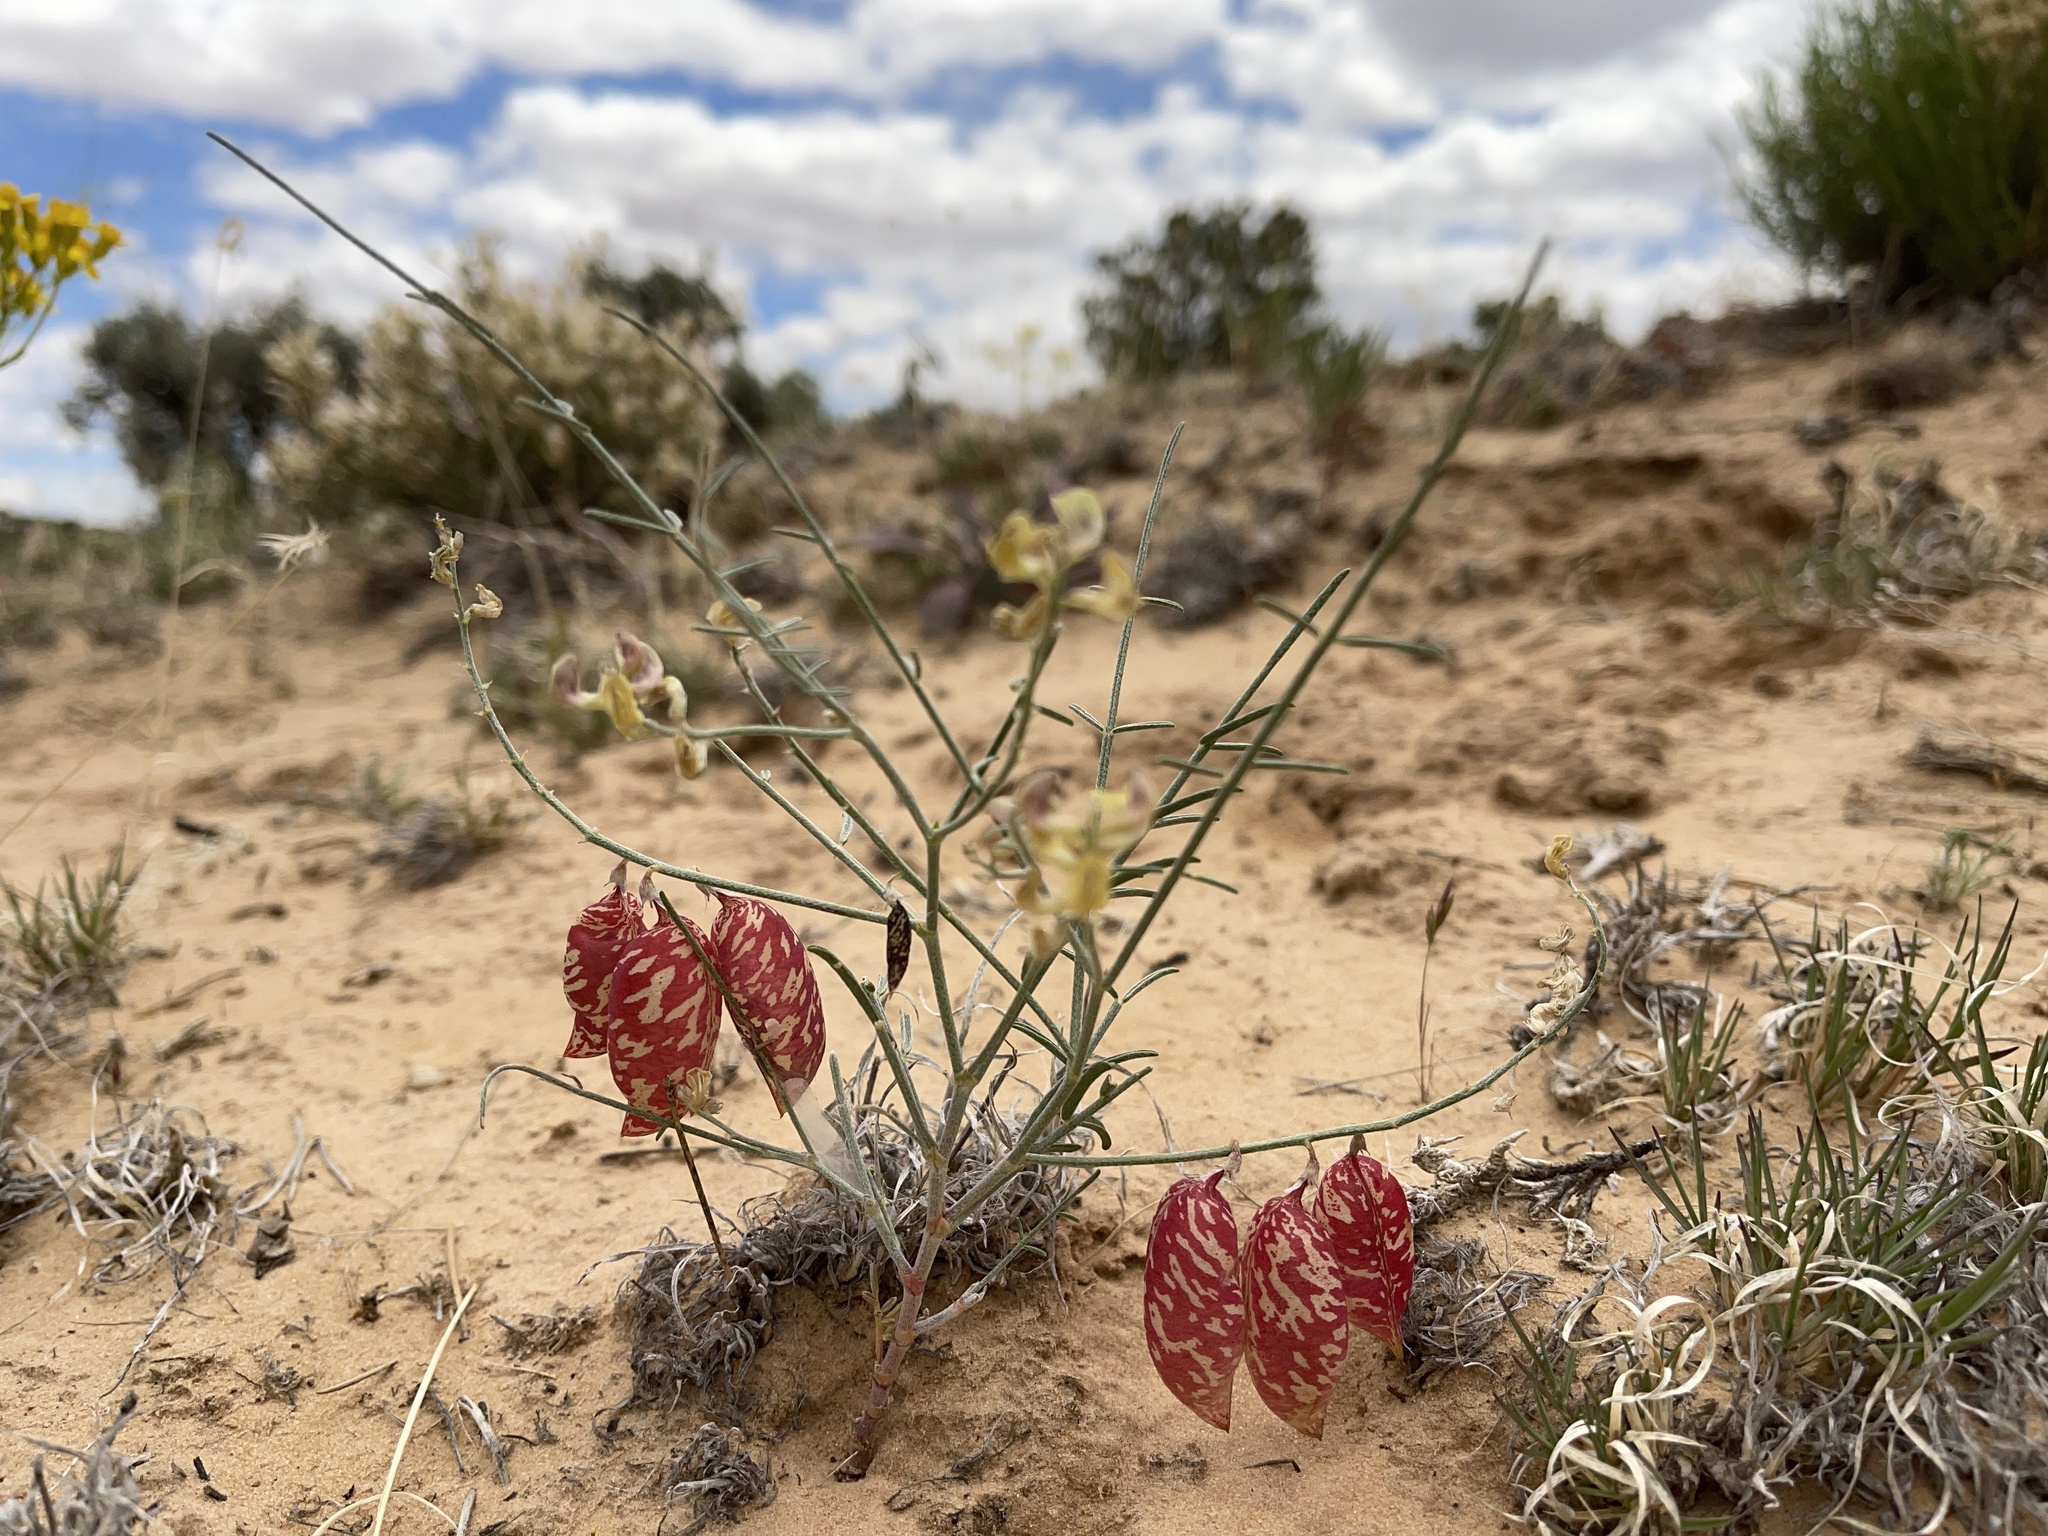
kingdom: Plantae
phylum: Tracheophyta
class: Magnoliopsida
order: Fabales
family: Fabaceae
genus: Astragalus
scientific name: Astragalus ceramicus
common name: Painted milk-vetch
